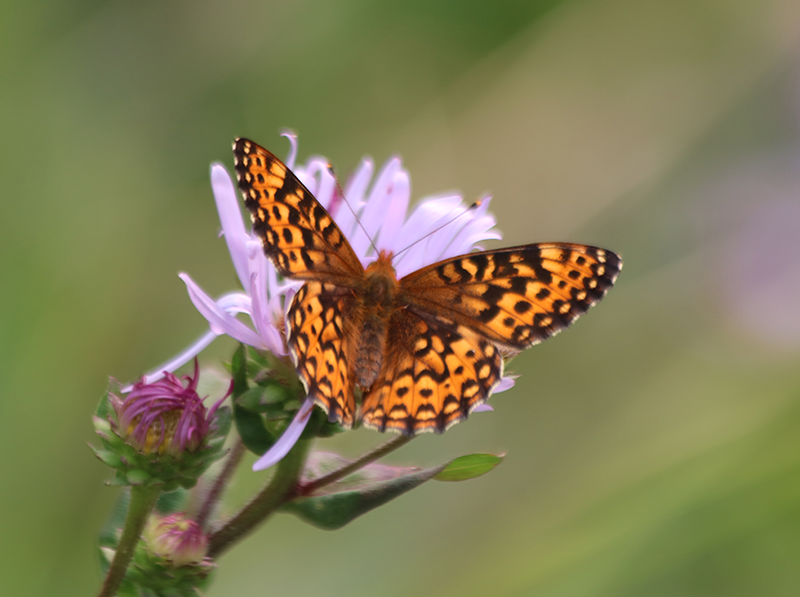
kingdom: Animalia
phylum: Arthropoda
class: Insecta
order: Lepidoptera
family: Nymphalidae
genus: Speyeria
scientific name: Speyeria hydaspe
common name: Hydaspe fritillary
